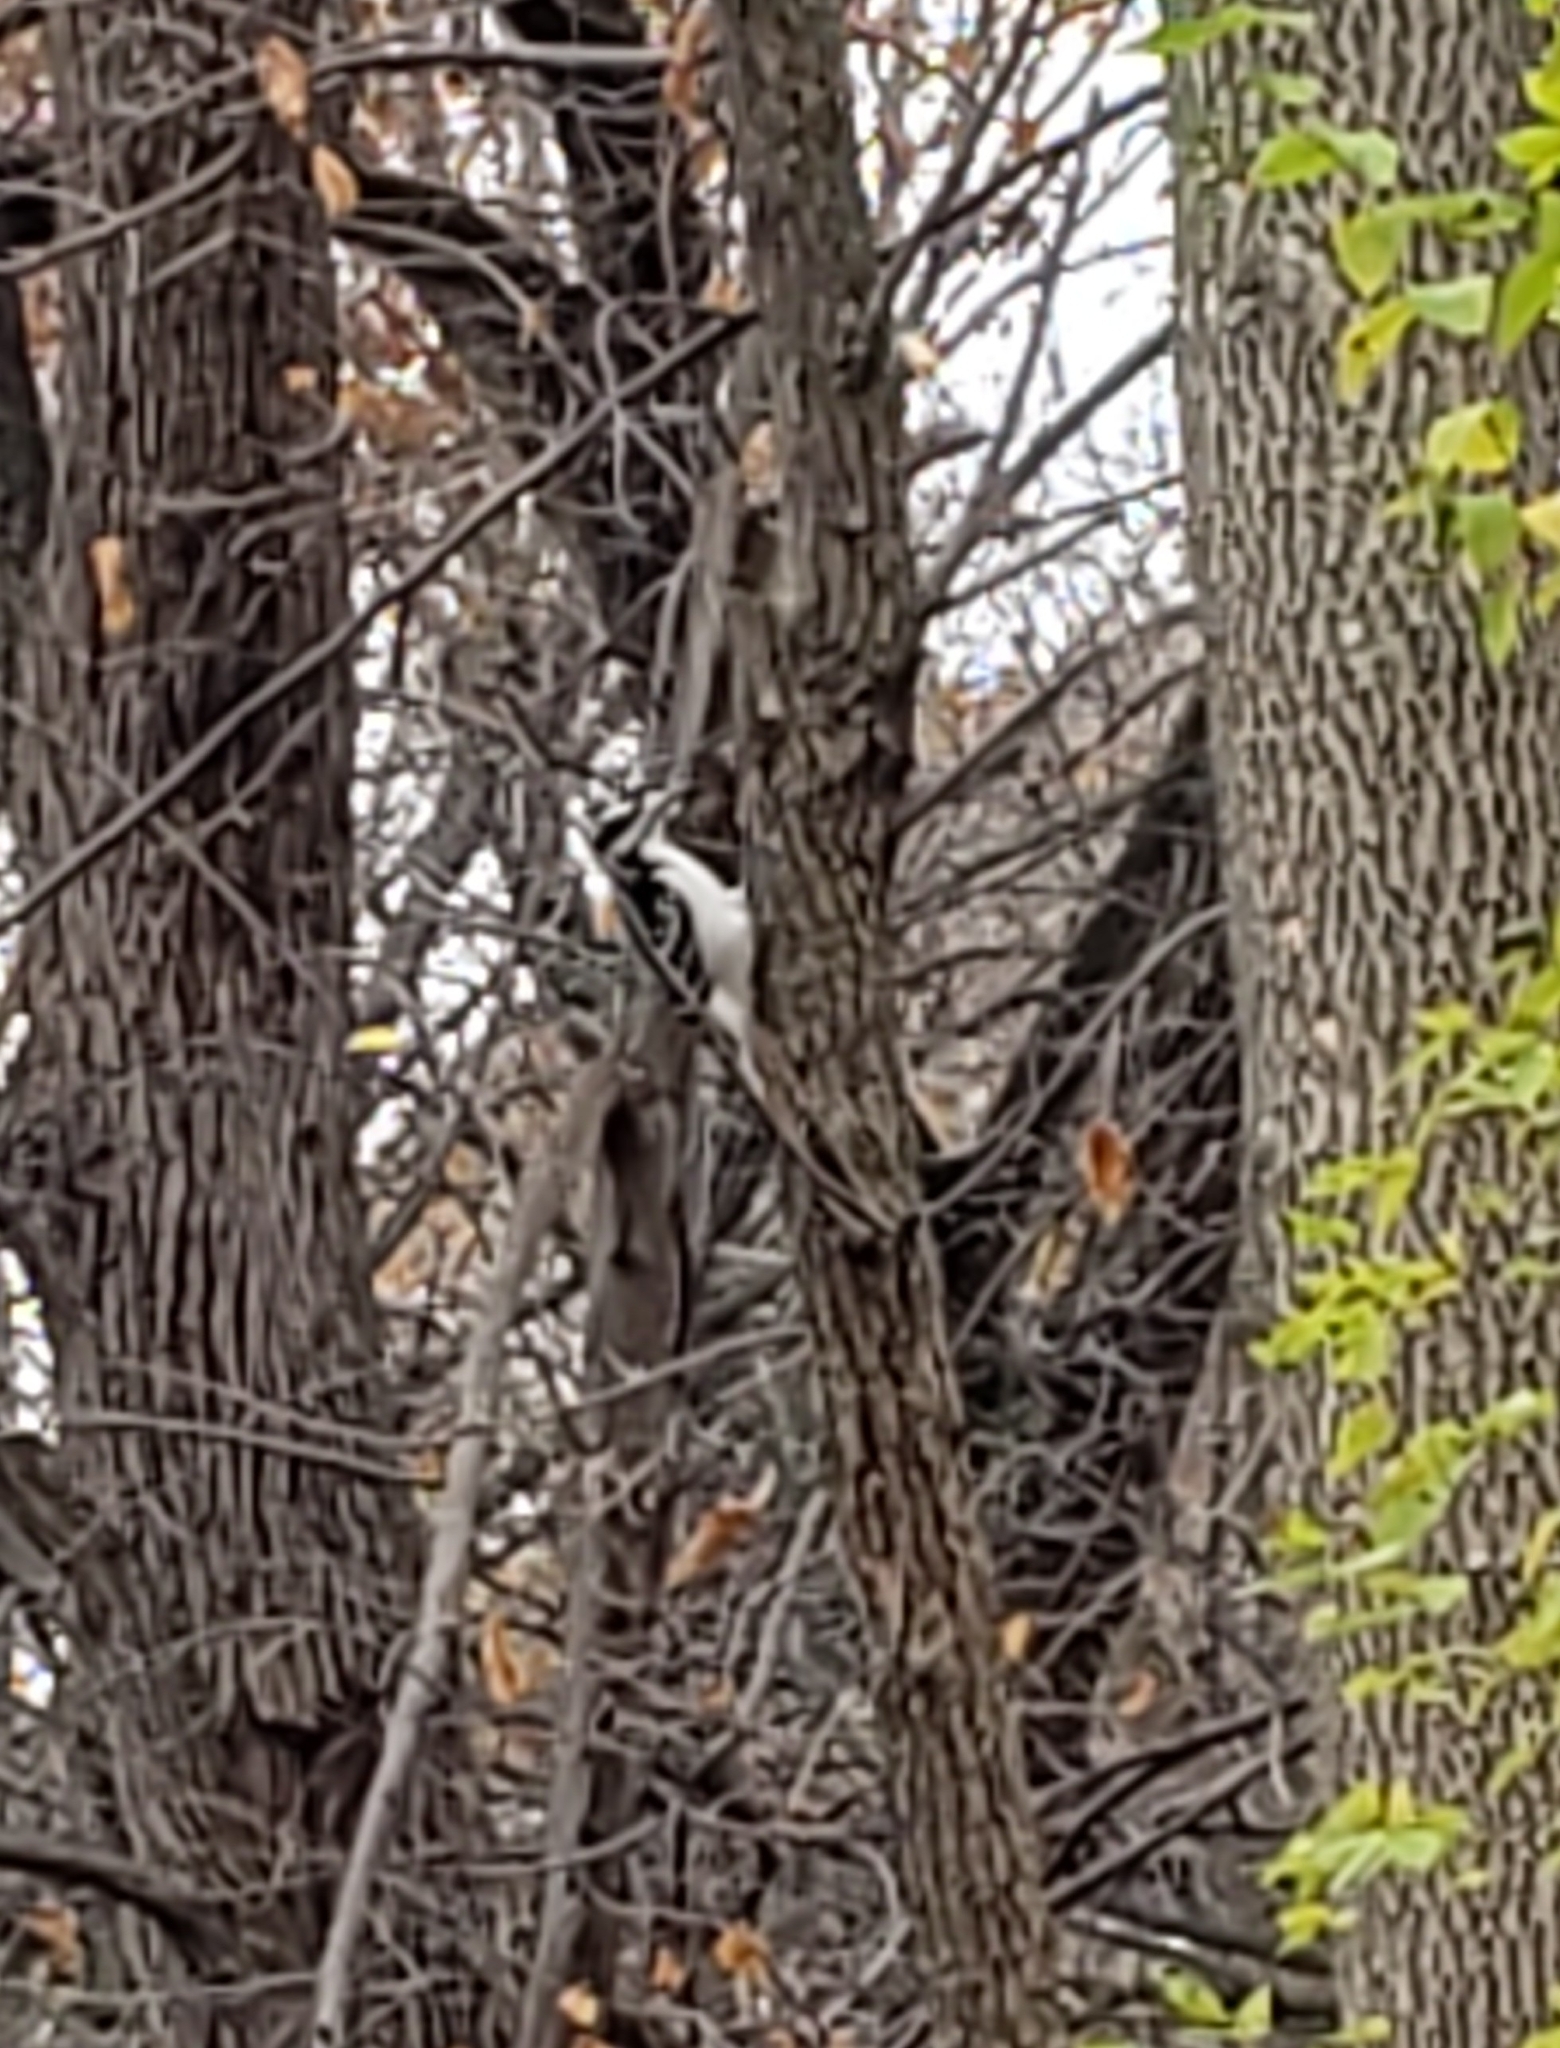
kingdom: Animalia
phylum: Chordata
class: Aves
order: Piciformes
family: Picidae
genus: Leuconotopicus
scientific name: Leuconotopicus villosus
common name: Hairy woodpecker
